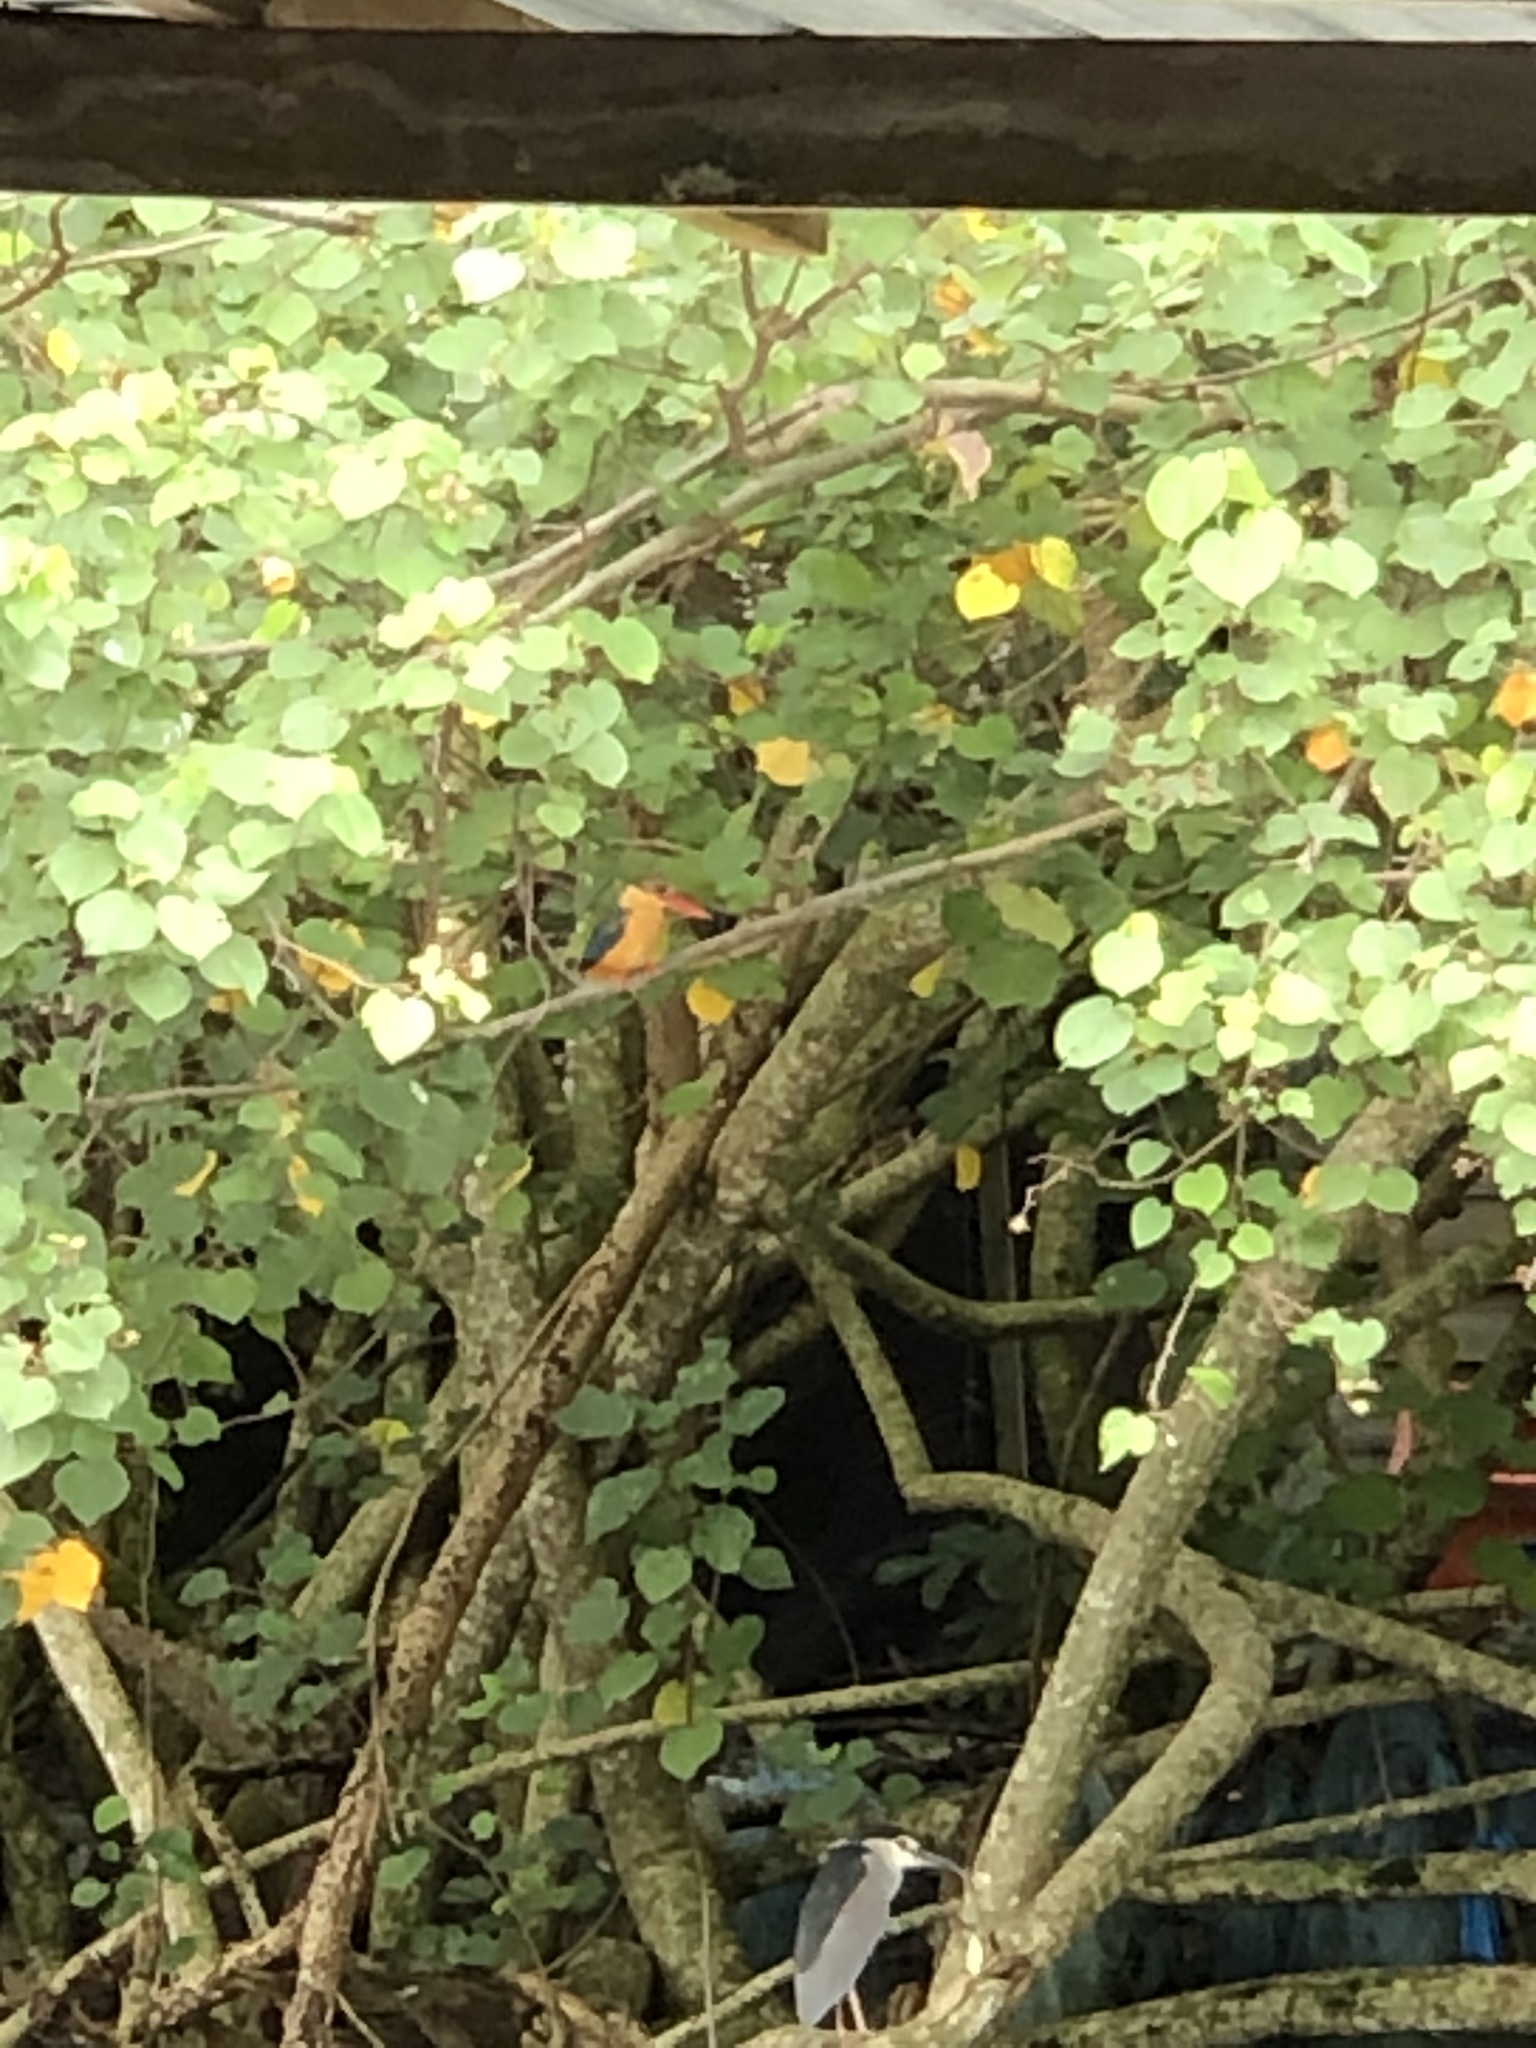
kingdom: Animalia
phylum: Chordata
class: Aves
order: Coraciiformes
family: Alcedinidae
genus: Pelargopsis
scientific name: Pelargopsis capensis
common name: Stork-billed kingfisher
